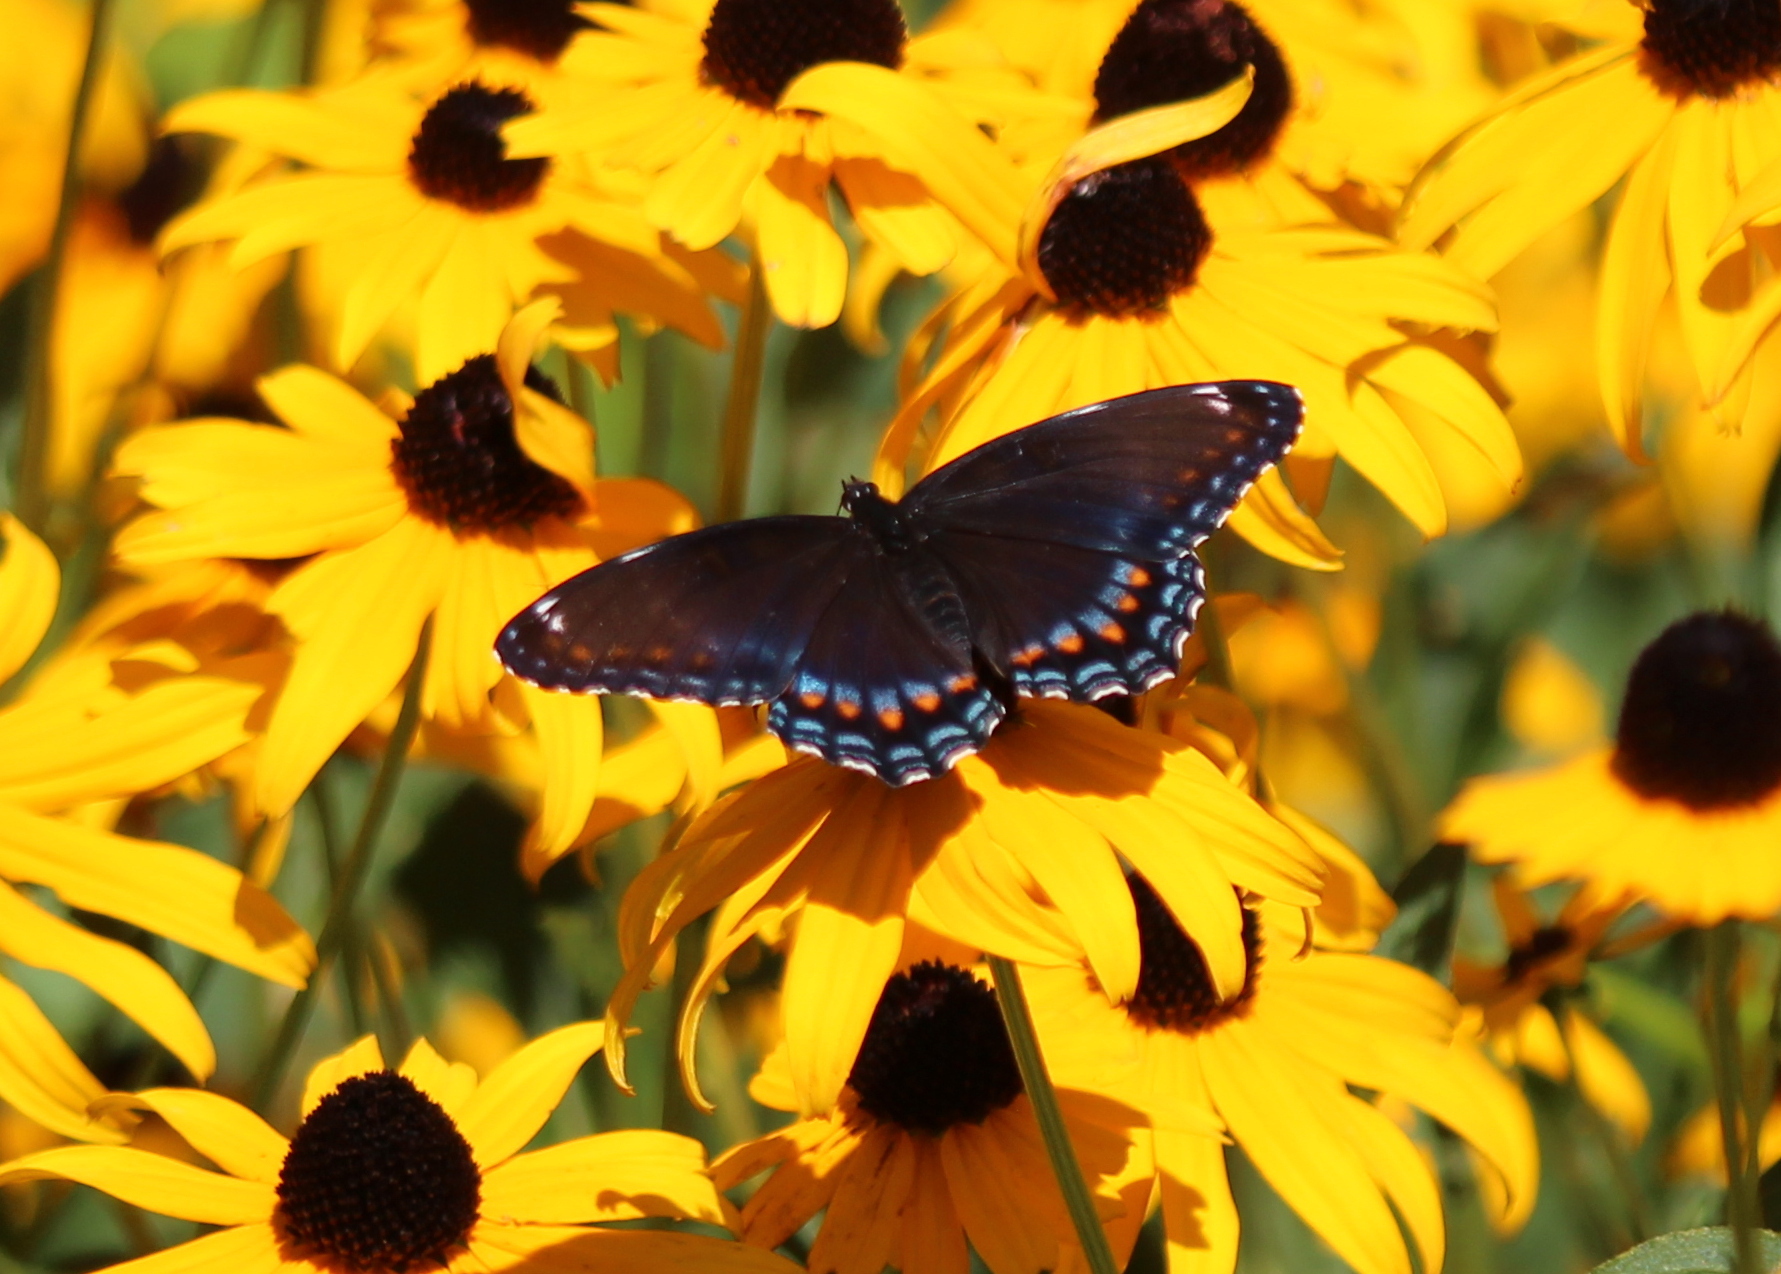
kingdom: Animalia
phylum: Arthropoda
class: Insecta
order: Lepidoptera
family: Nymphalidae
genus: Limenitis
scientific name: Limenitis arthemis
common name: Red-spotted admiral
